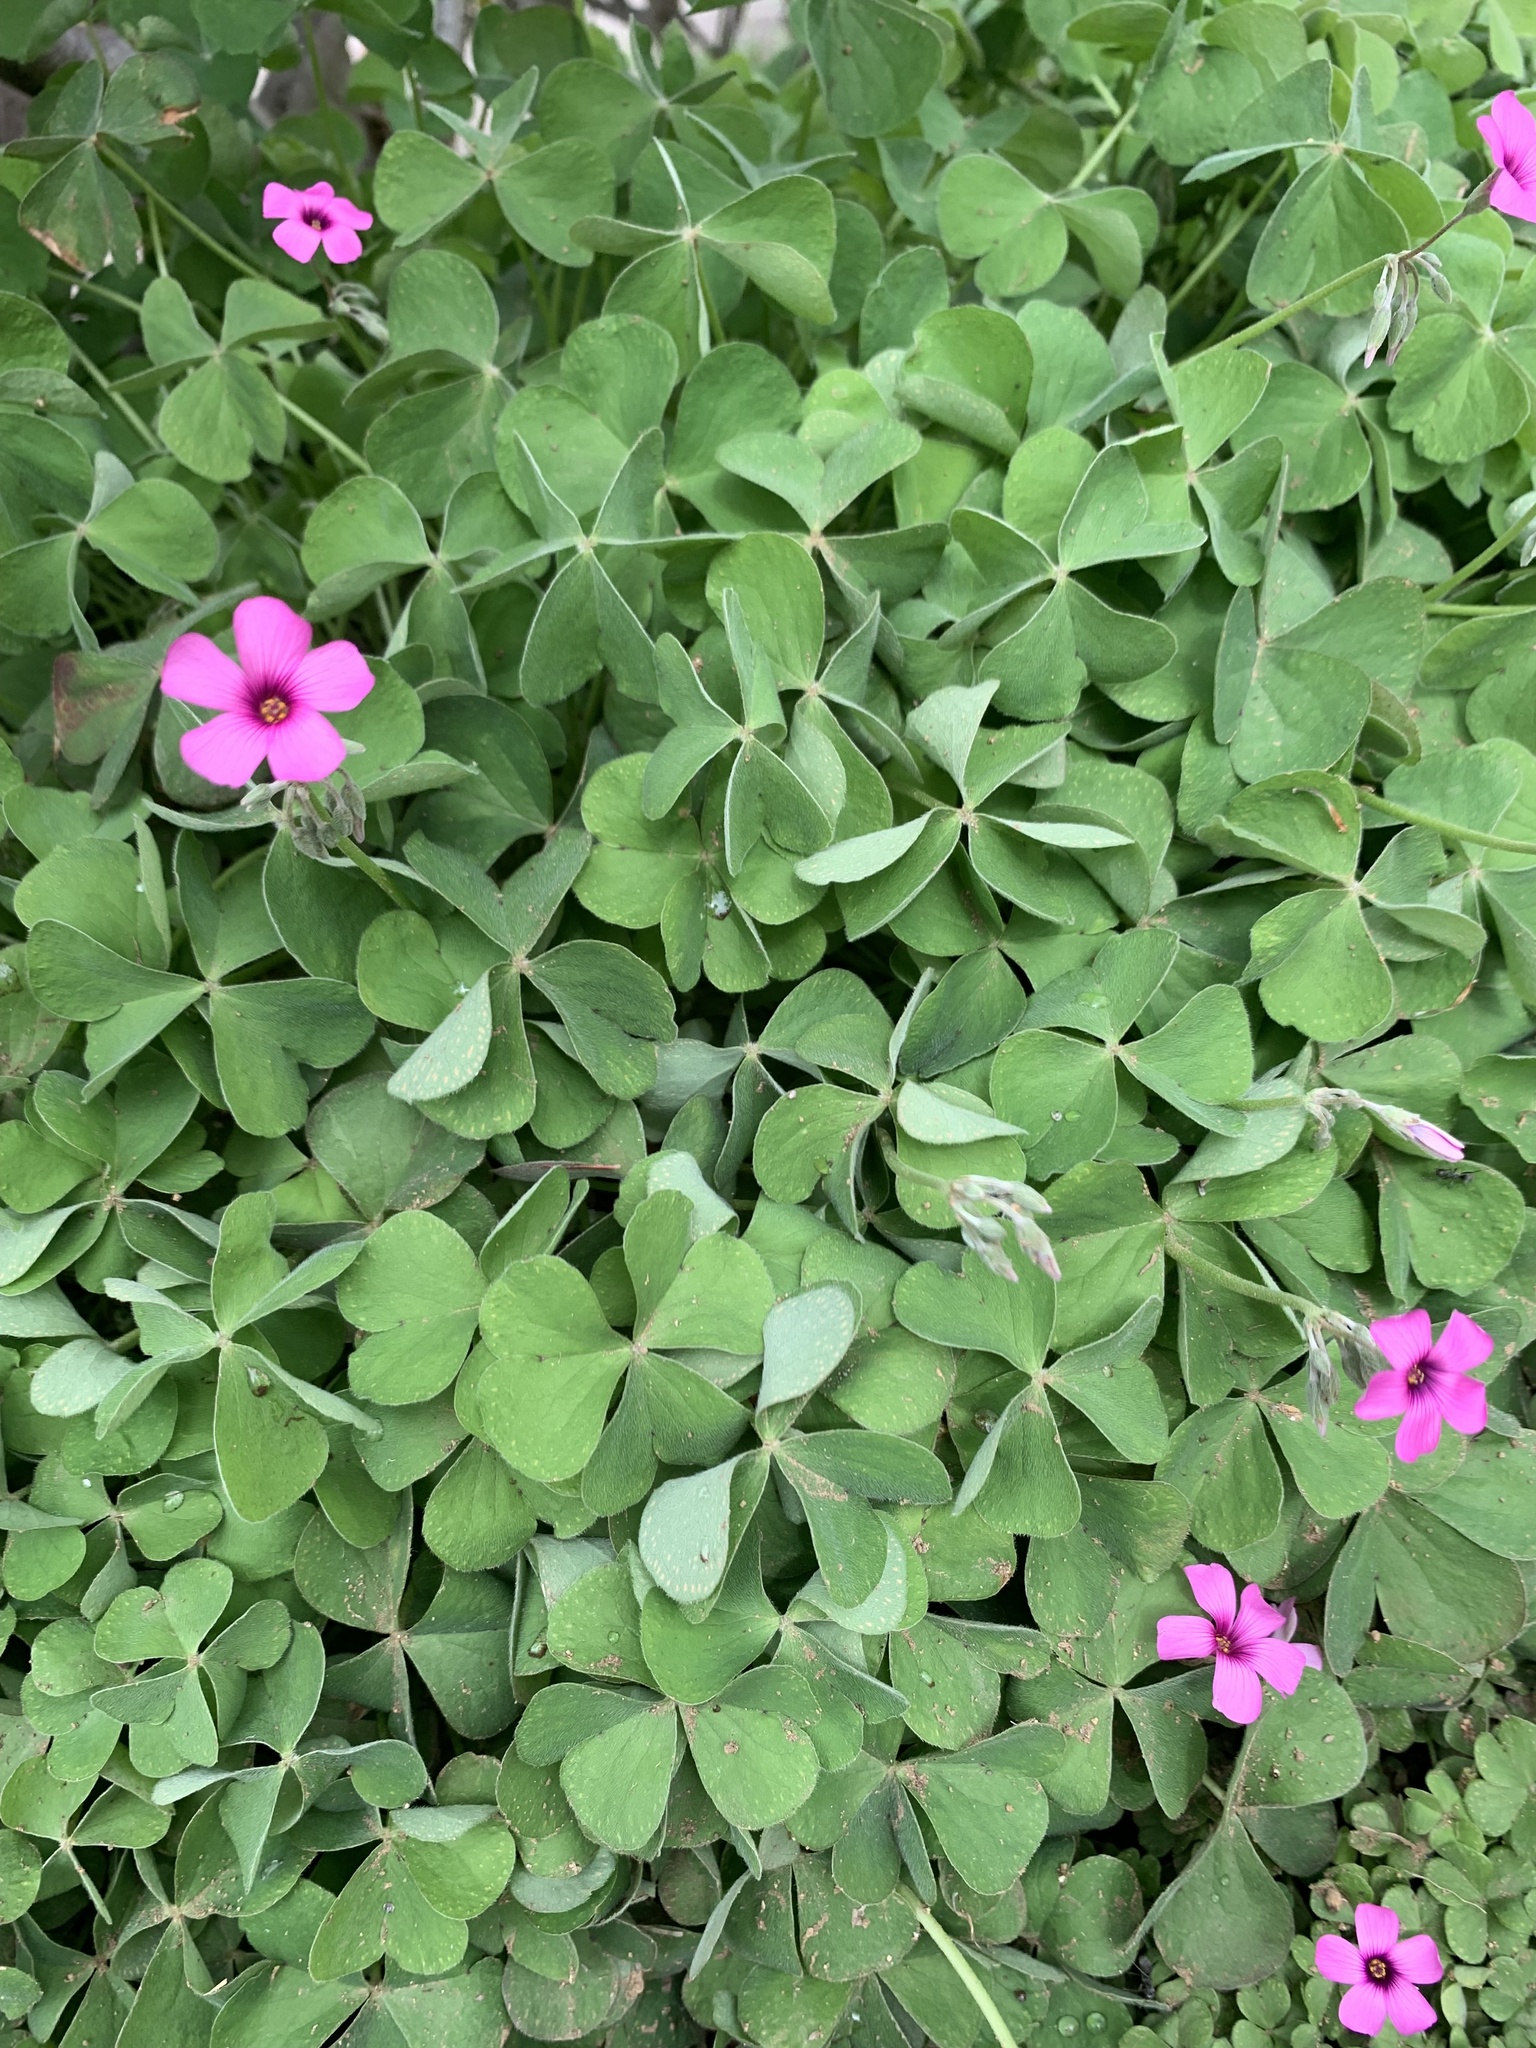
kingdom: Plantae
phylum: Tracheophyta
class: Magnoliopsida
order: Oxalidales
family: Oxalidaceae
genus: Oxalis
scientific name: Oxalis articulata
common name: Pink-sorrel
